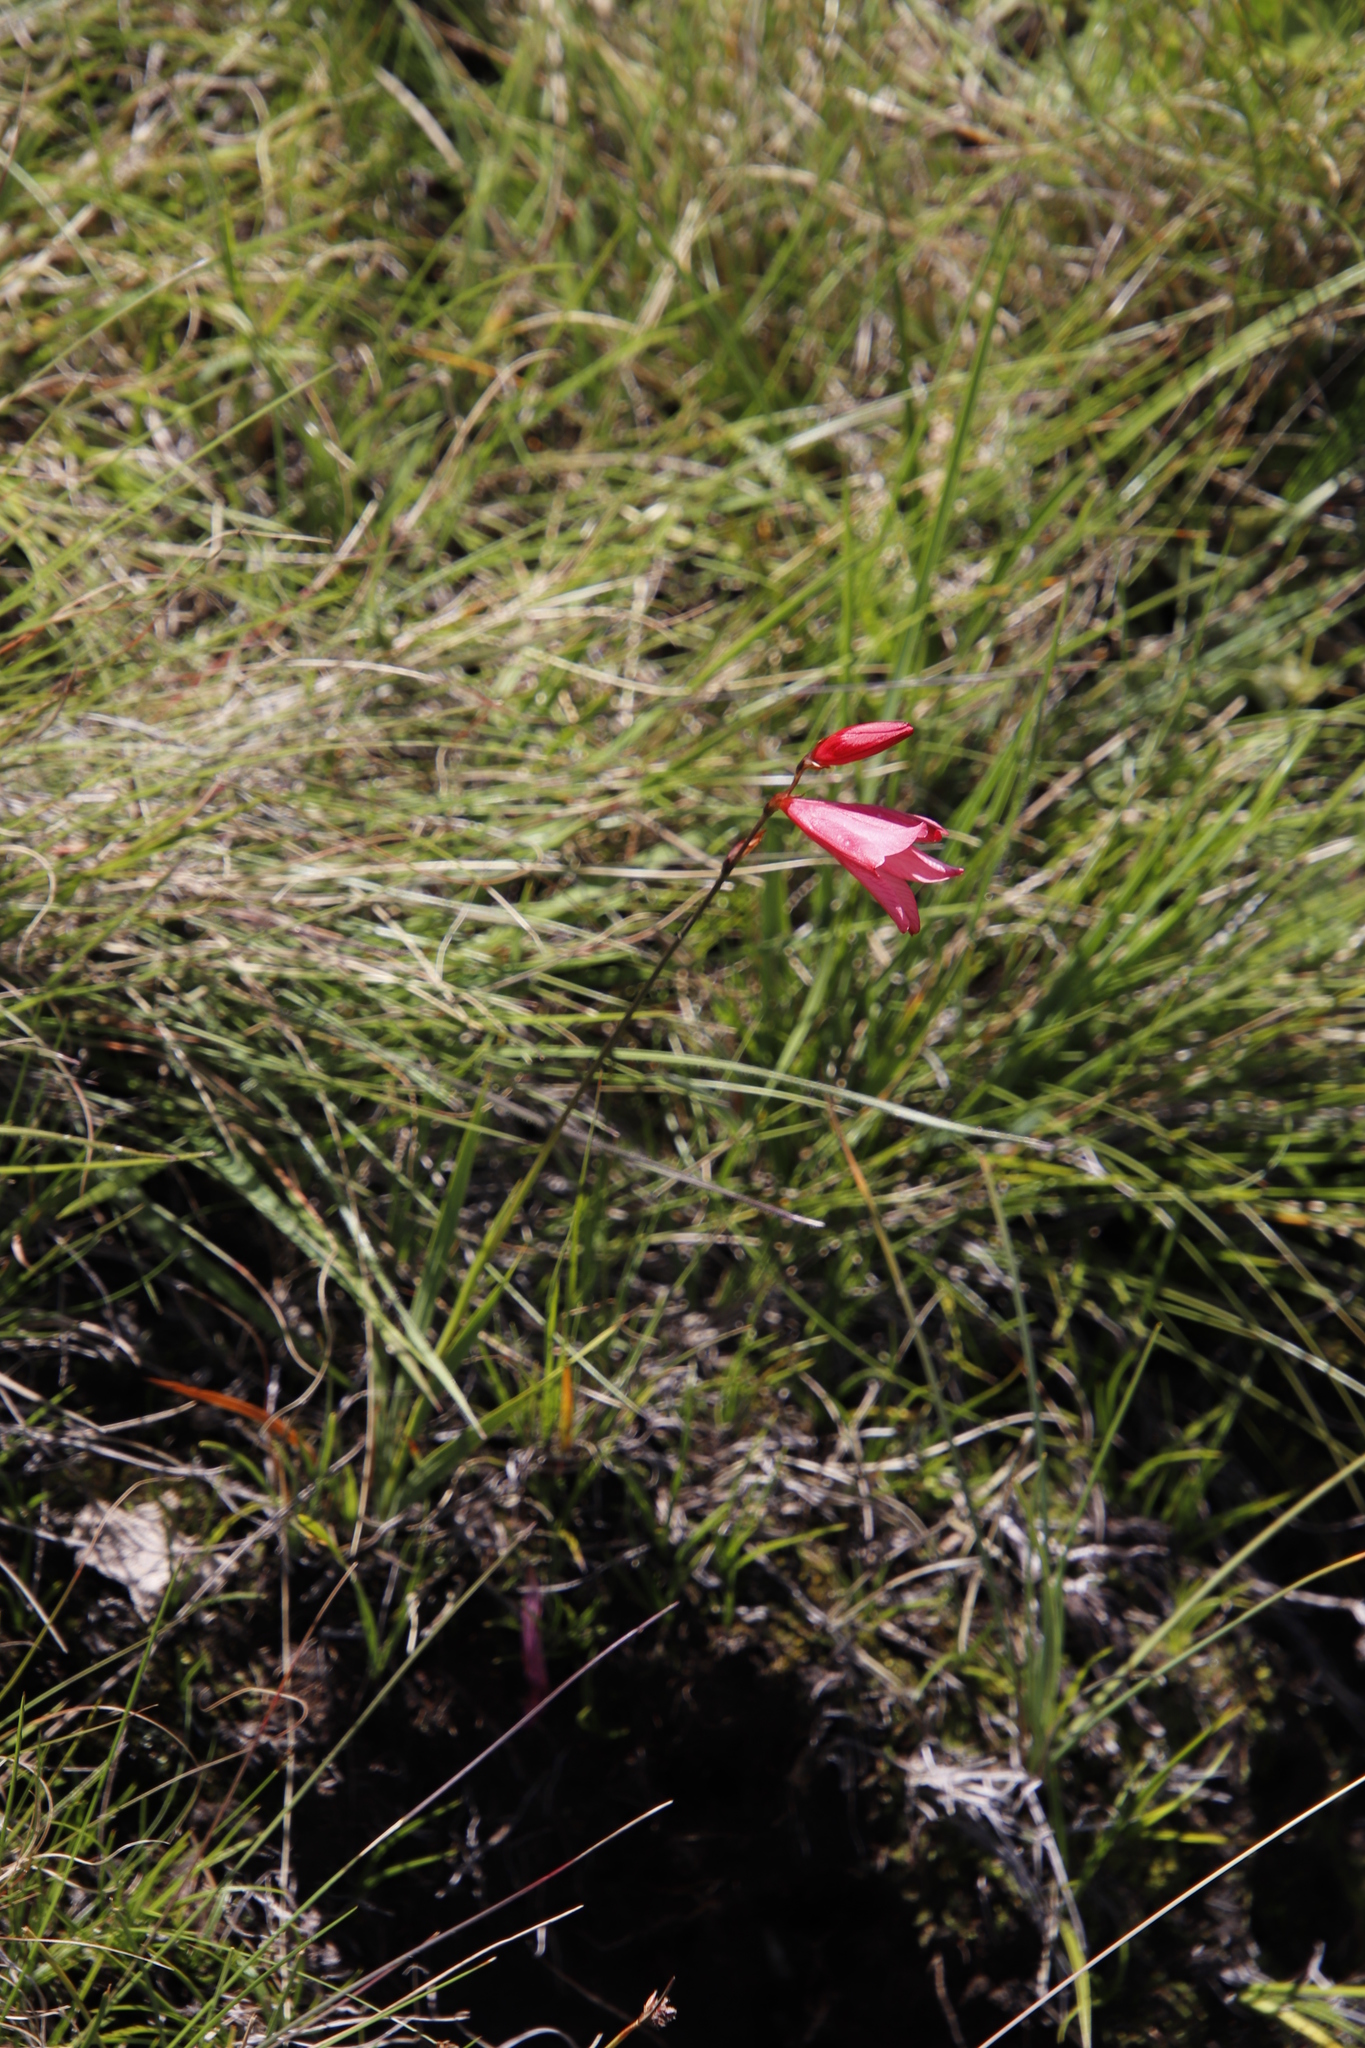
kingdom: Plantae
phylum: Tracheophyta
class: Liliopsida
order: Asparagales
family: Iridaceae
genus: Tritonia
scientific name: Tritonia drakensbergensis
